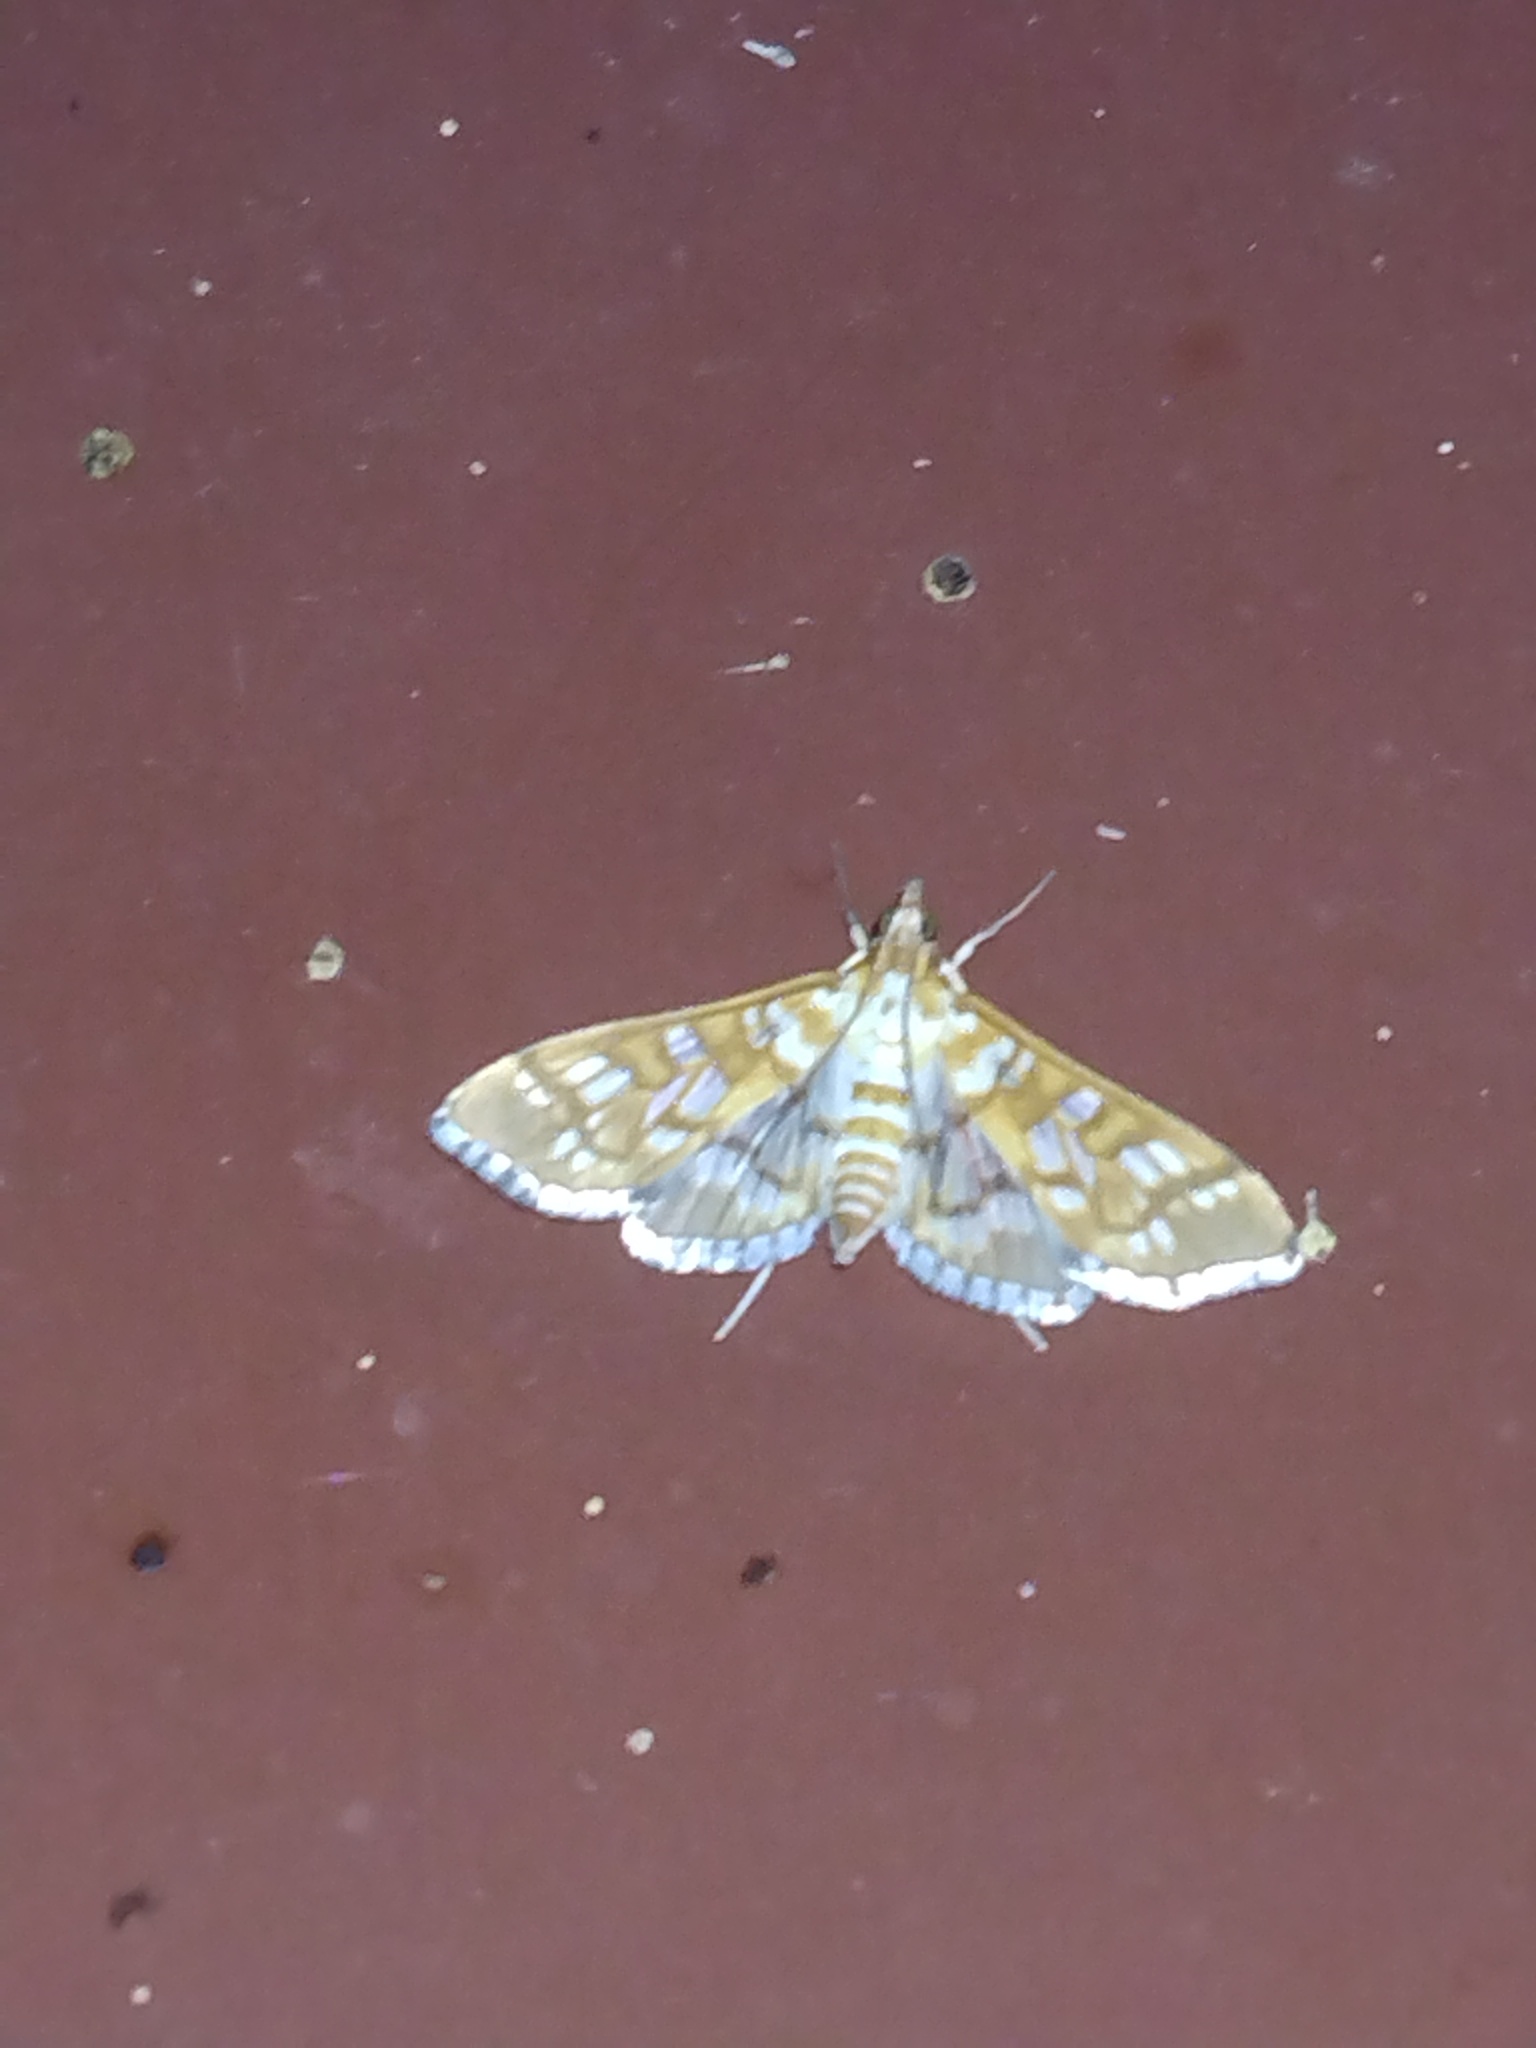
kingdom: Animalia
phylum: Arthropoda
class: Insecta
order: Lepidoptera
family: Crambidae
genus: Epipagis
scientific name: Epipagis fenestralis
